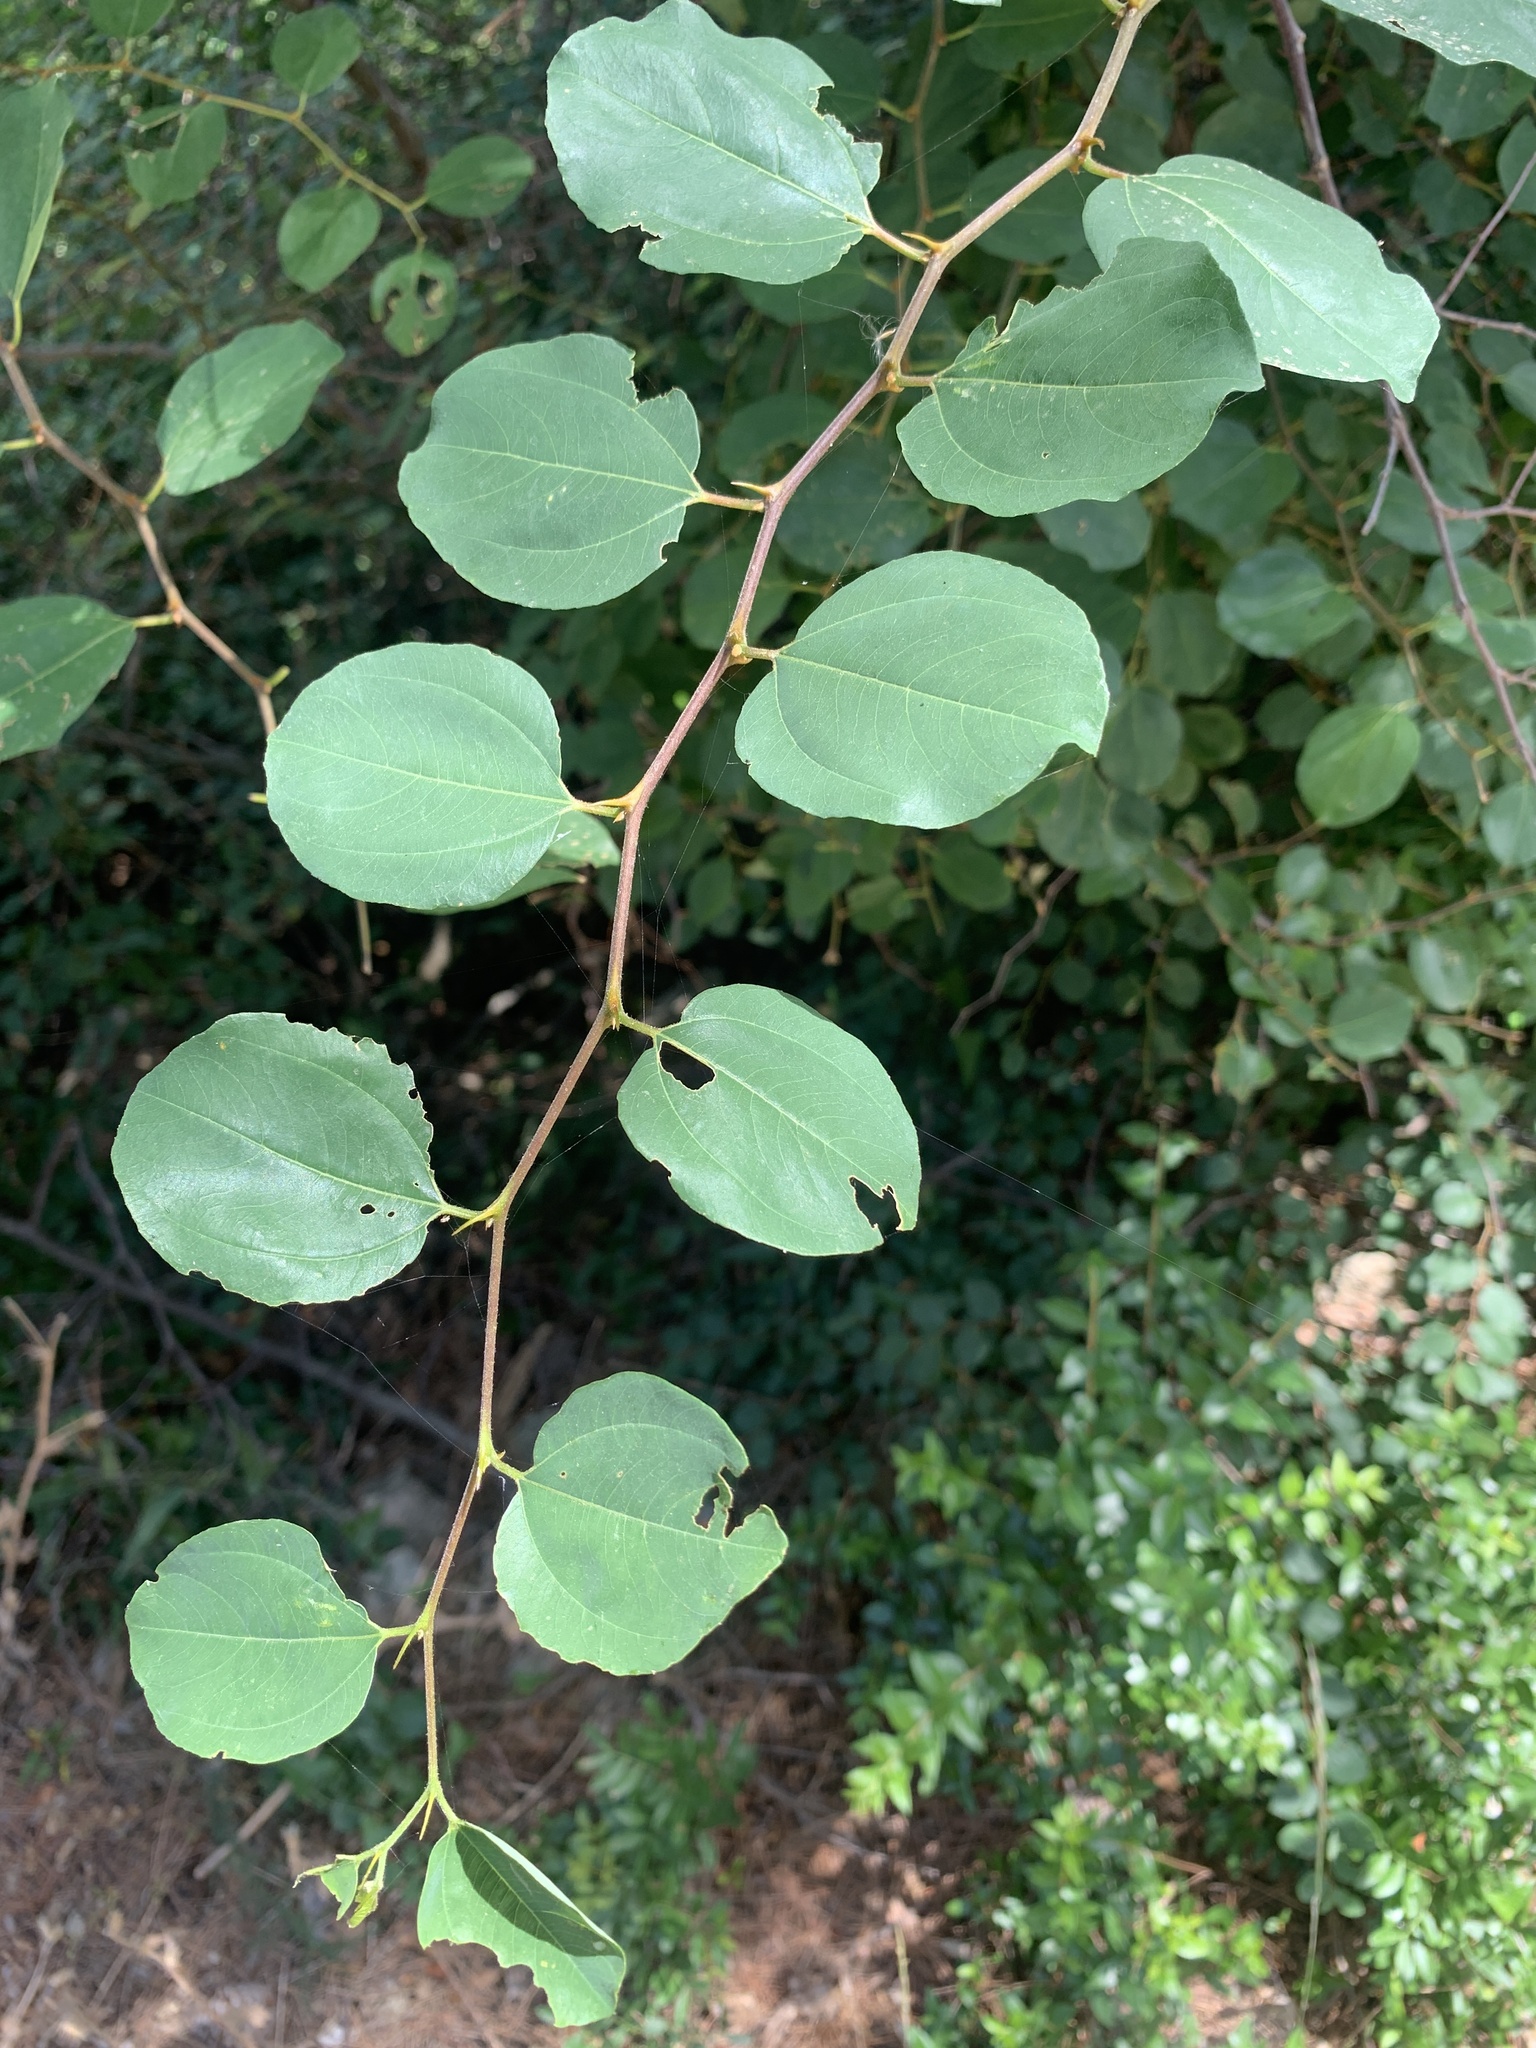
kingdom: Plantae
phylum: Tracheophyta
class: Magnoliopsida
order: Rosales
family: Rhamnaceae
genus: Paliurus
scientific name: Paliurus spina-christi
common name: Jeruselem thorn
